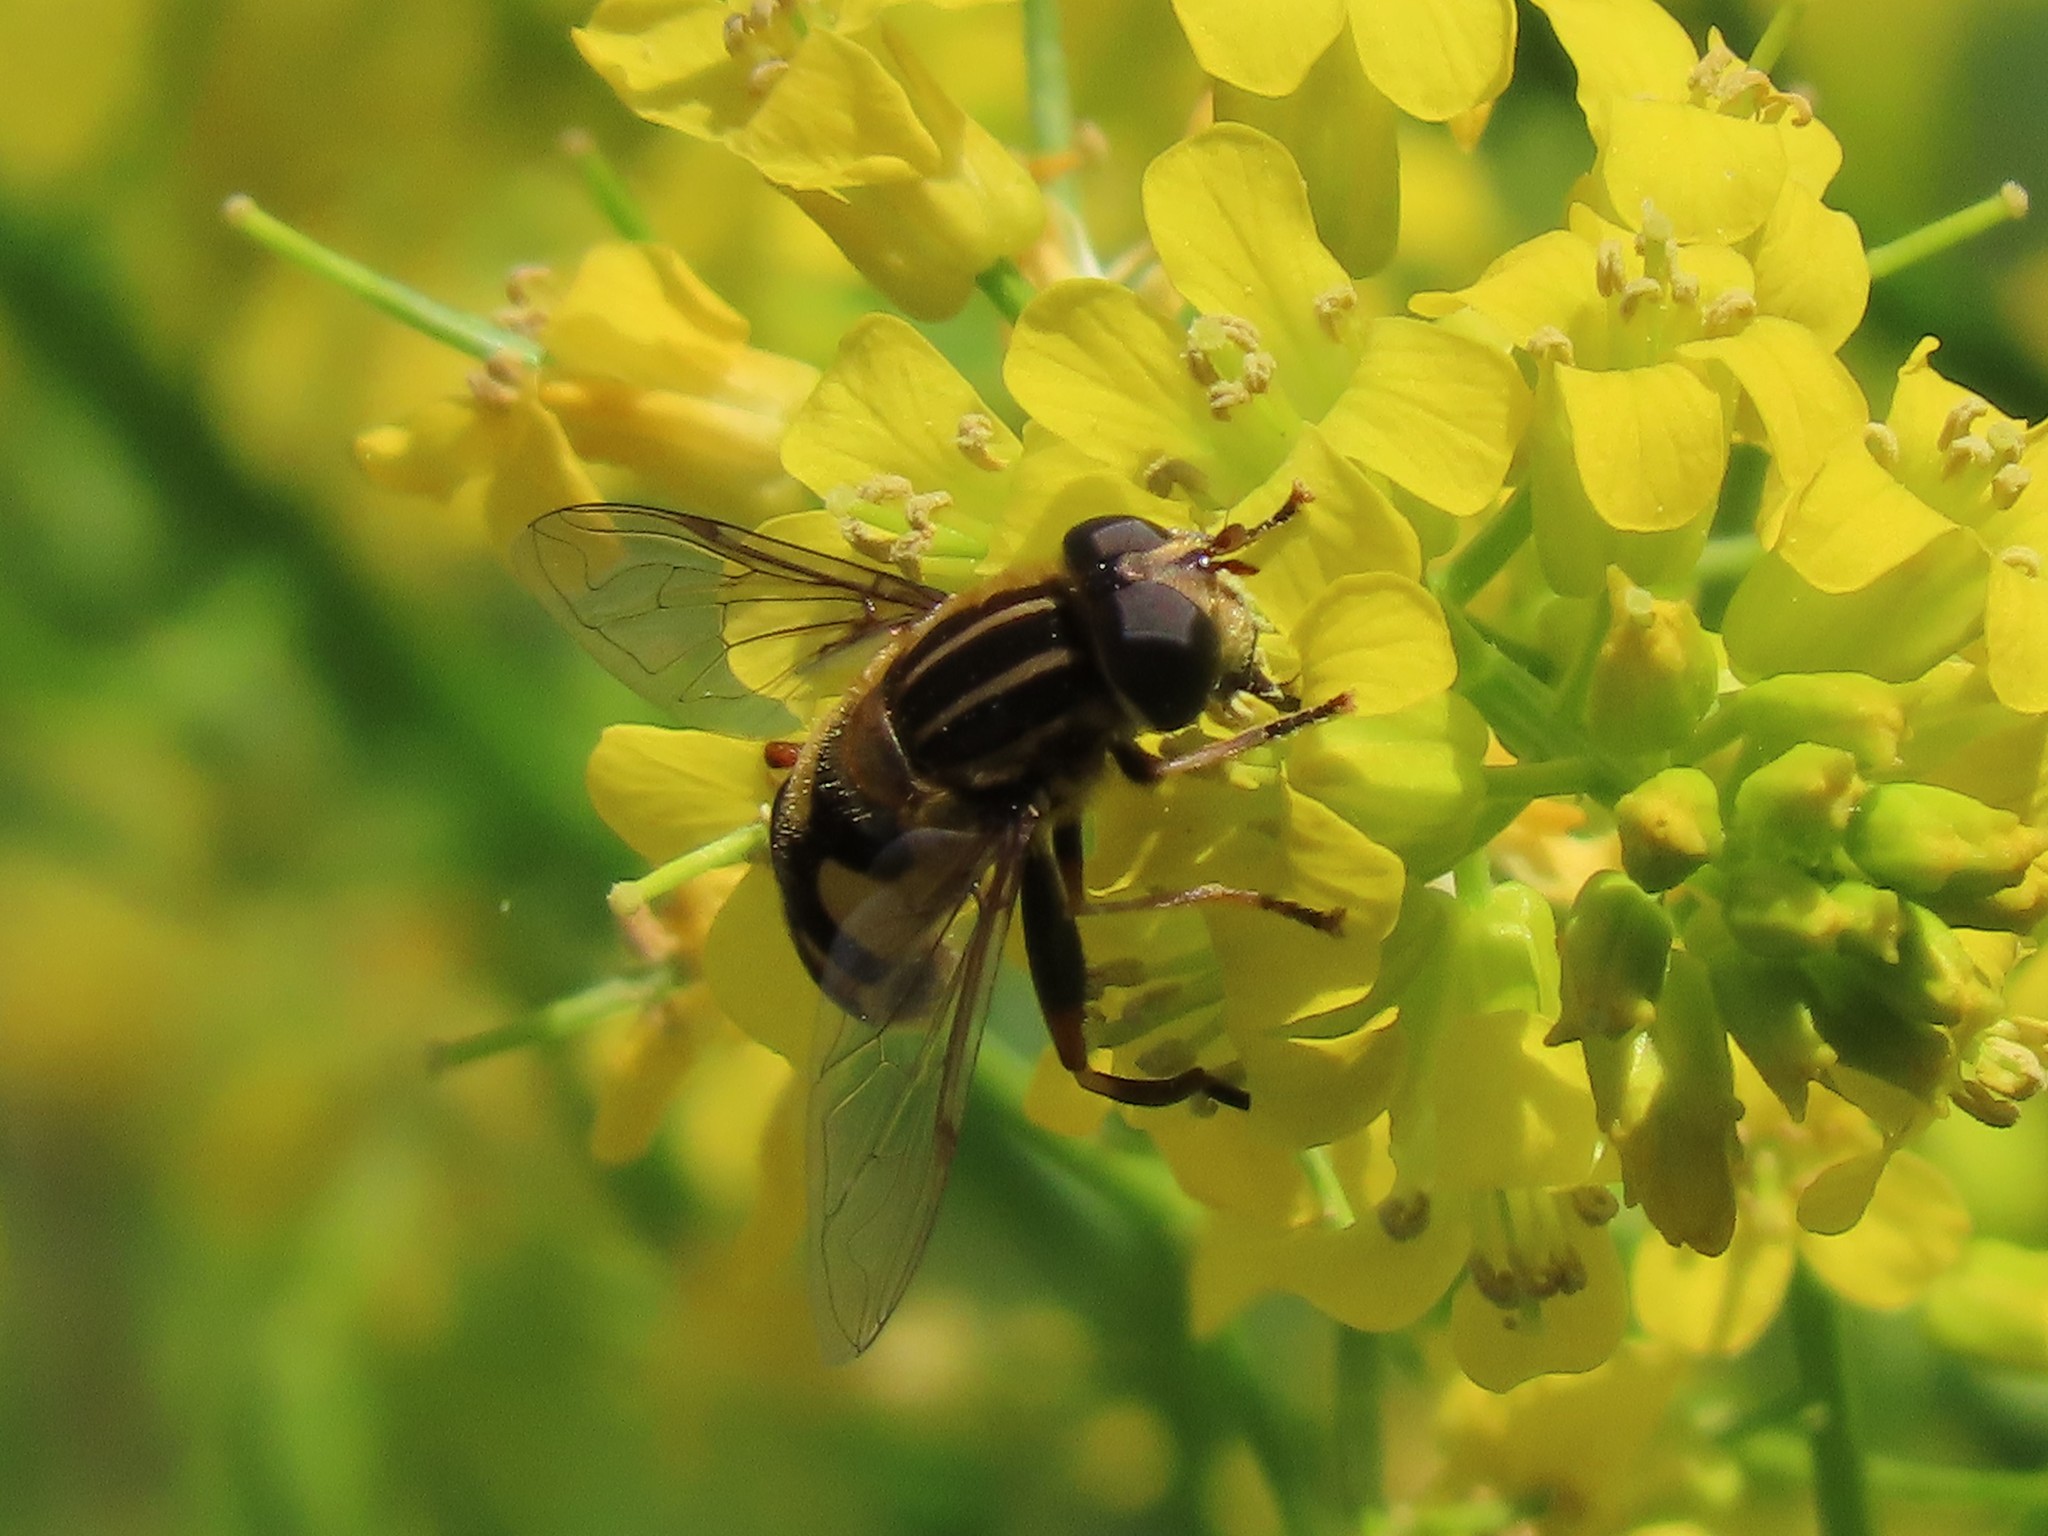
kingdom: Animalia
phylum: Arthropoda
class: Insecta
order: Diptera
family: Syrphidae
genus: Helophilus
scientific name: Helophilus fasciatus
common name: Narrow-headed marsh fly
